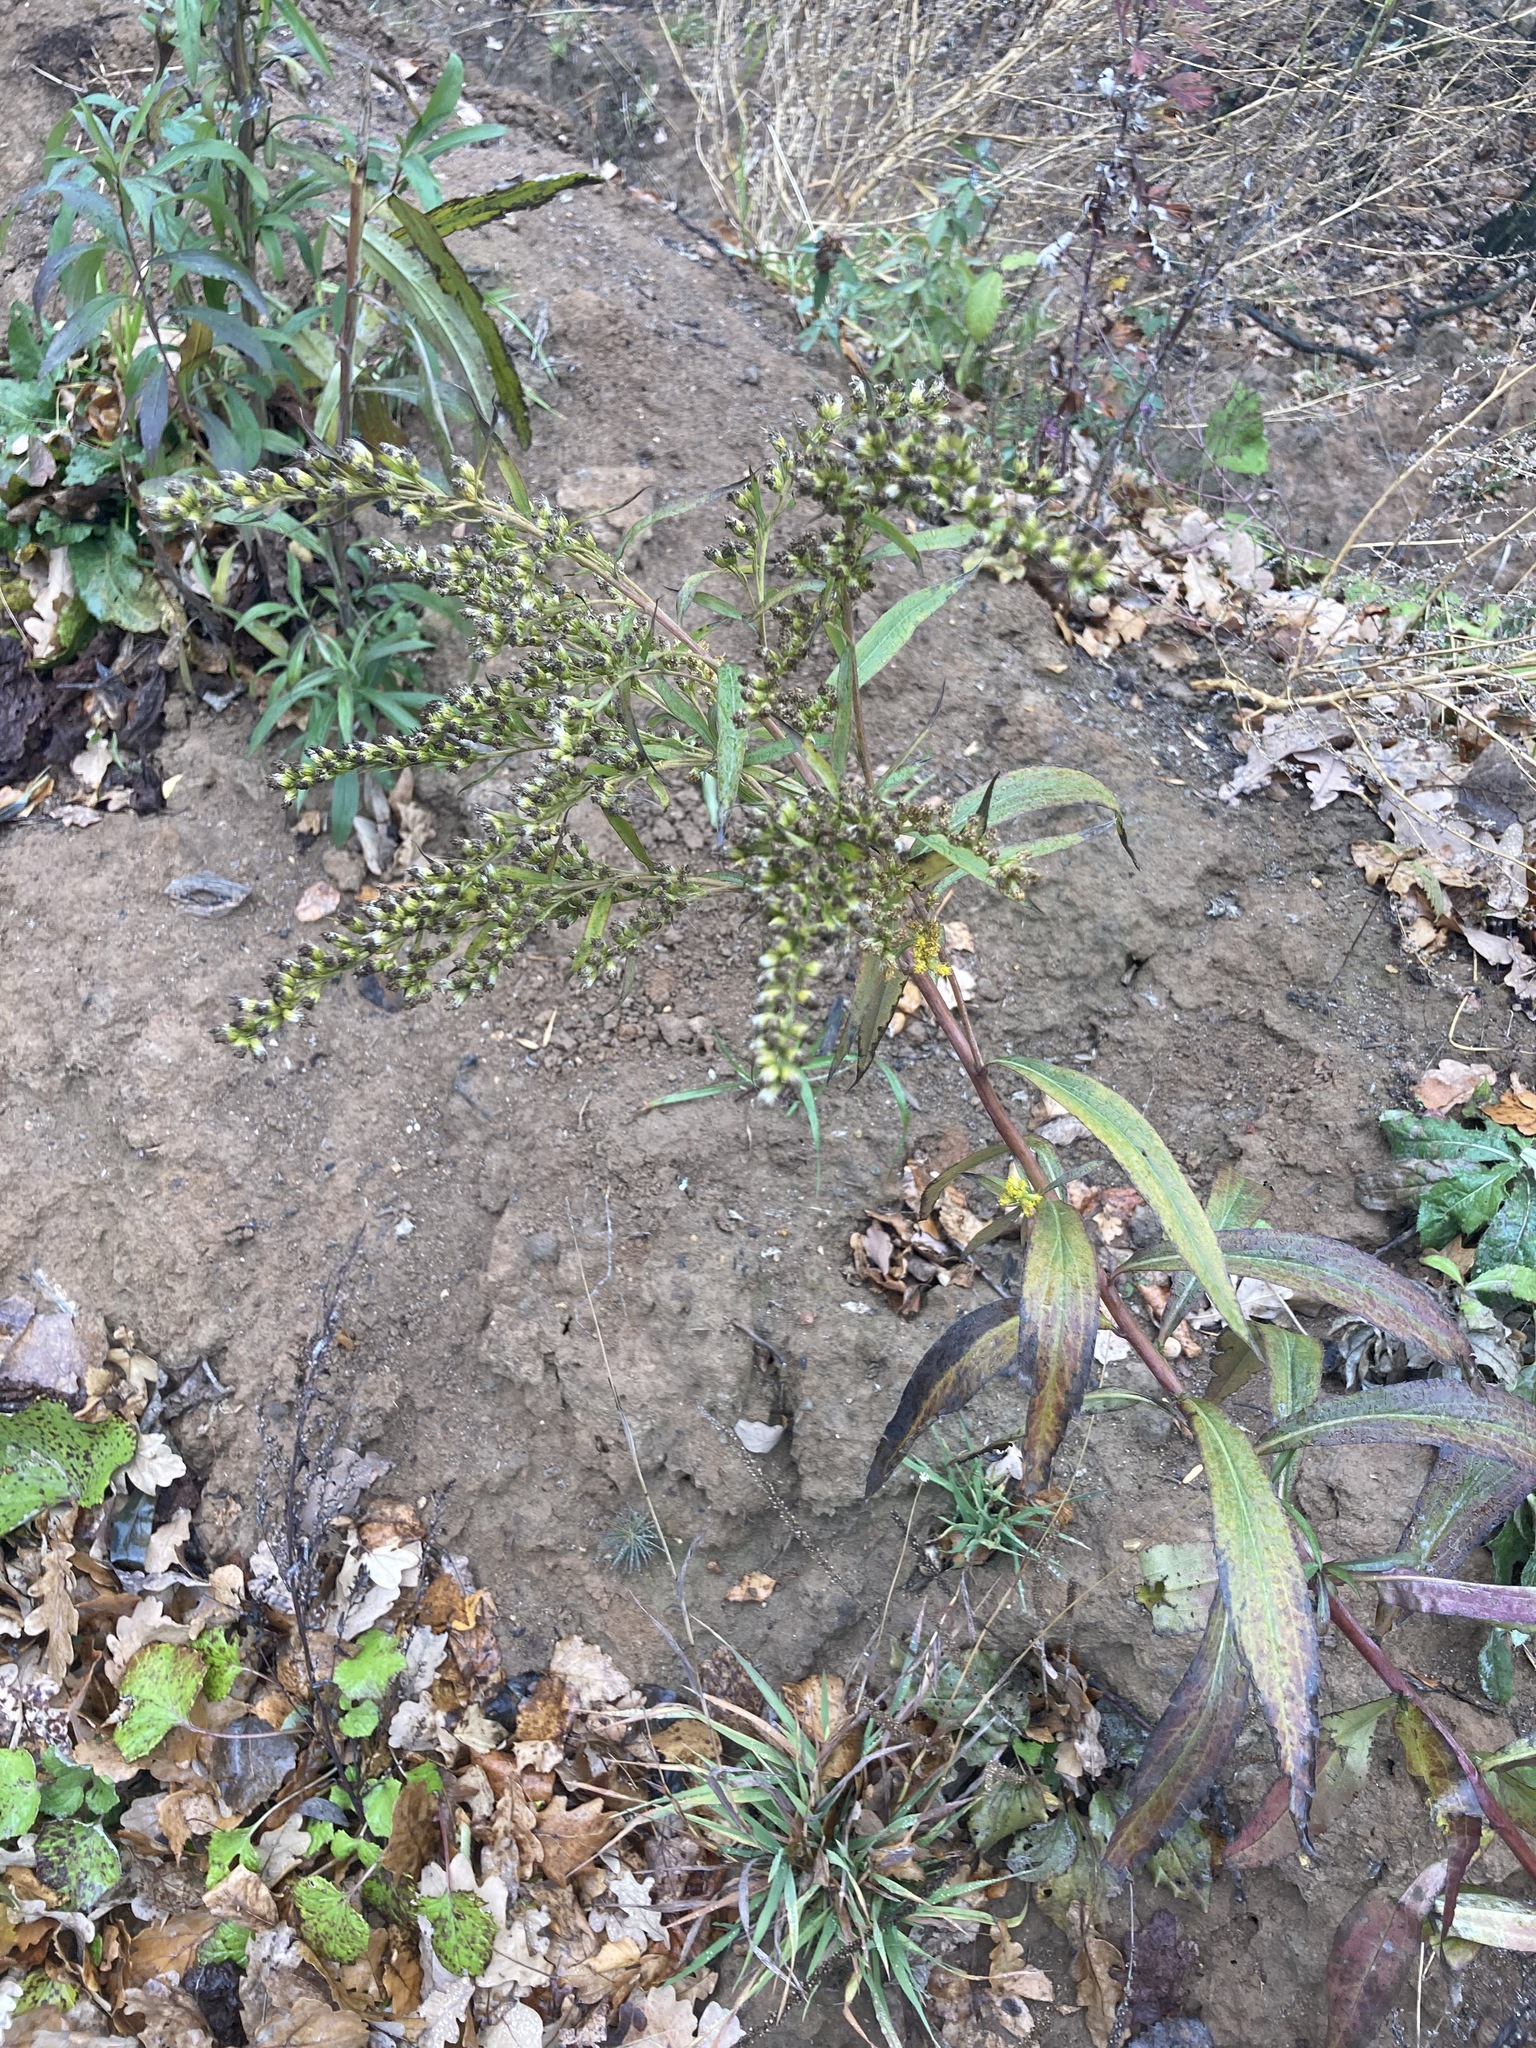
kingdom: Plantae
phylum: Tracheophyta
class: Magnoliopsida
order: Asterales
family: Asteraceae
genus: Solidago
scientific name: Solidago gigantea
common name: Giant goldenrod
